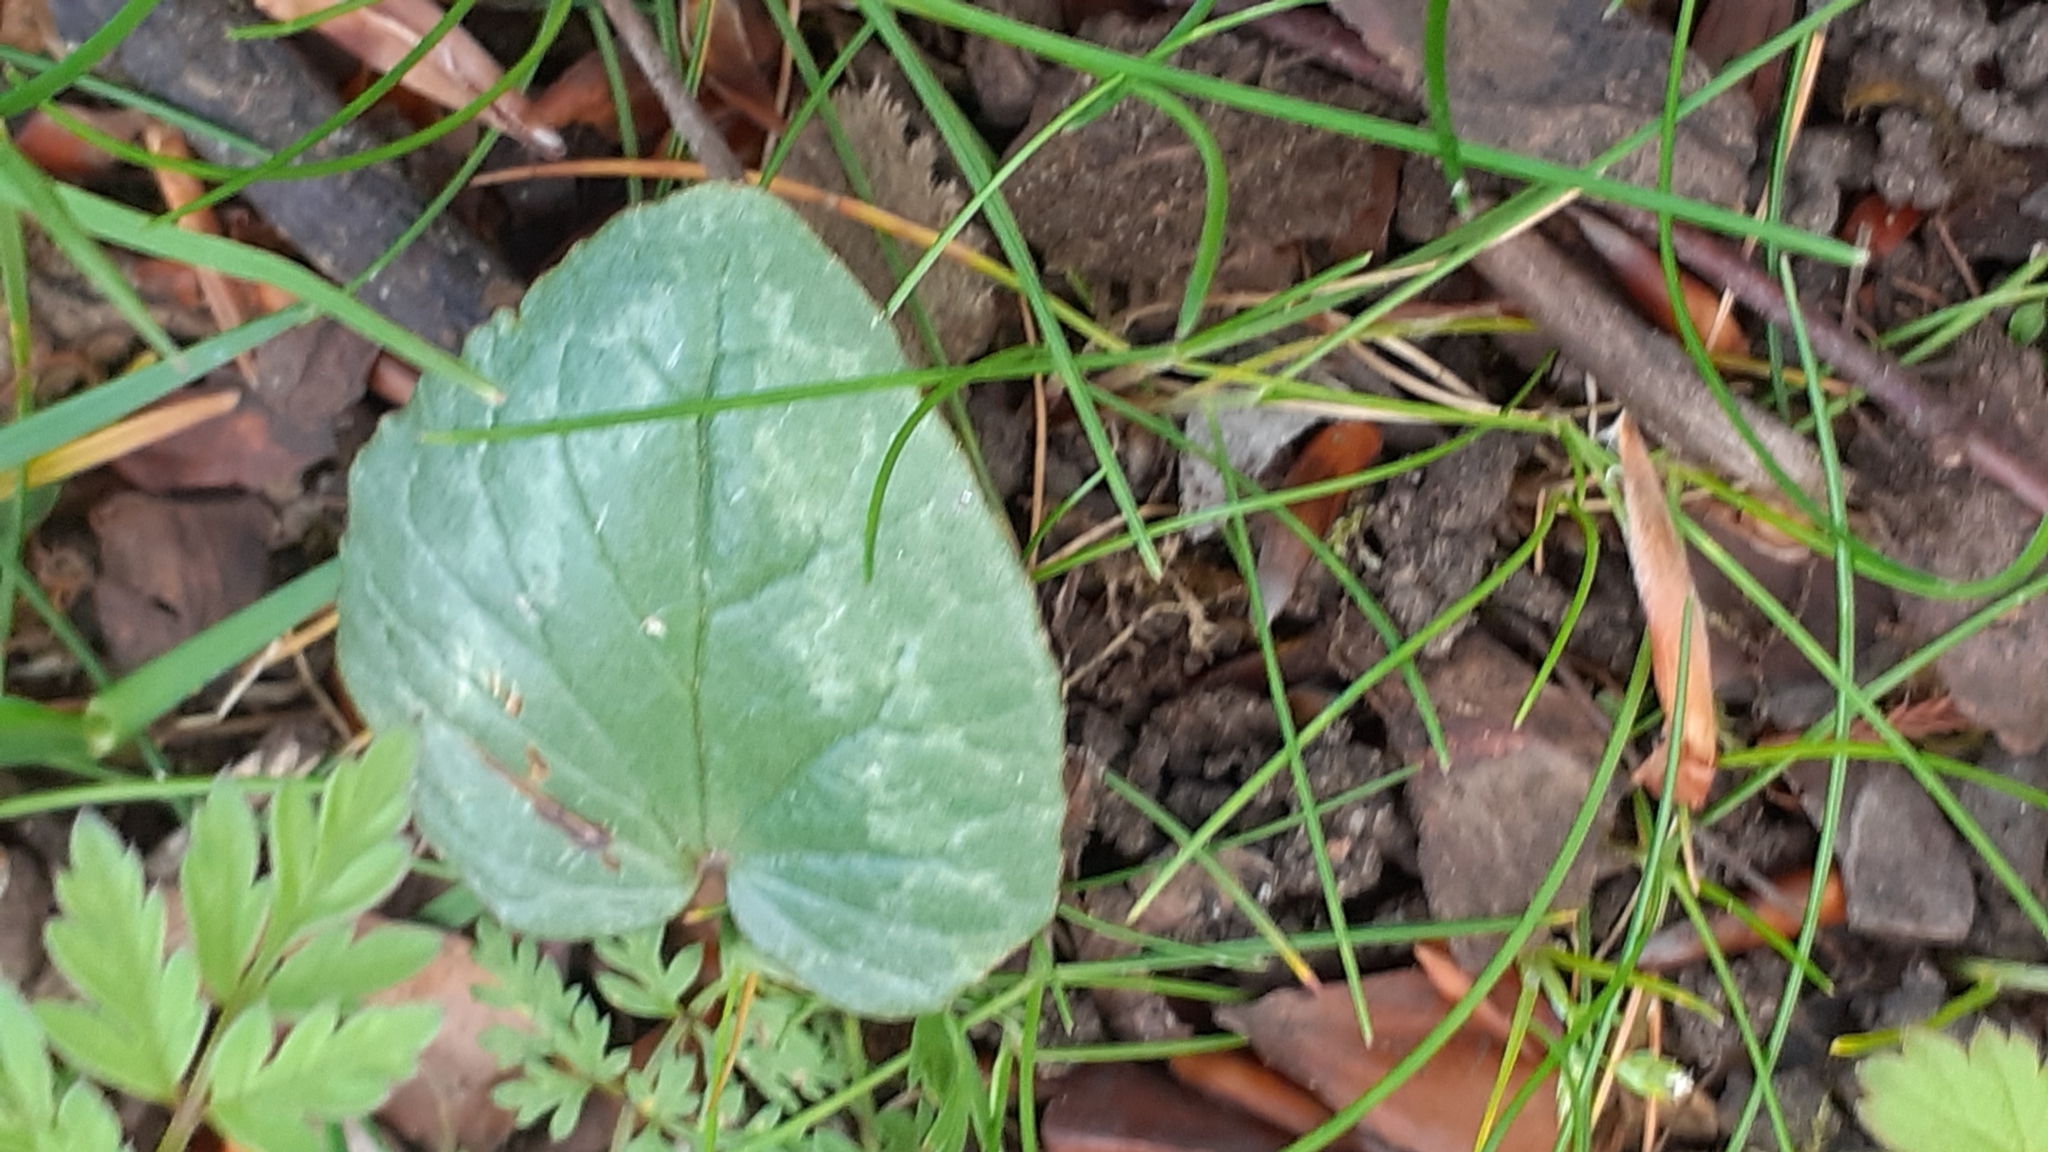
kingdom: Plantae
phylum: Tracheophyta
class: Magnoliopsida
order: Ericales
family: Primulaceae
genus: Cyclamen
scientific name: Cyclamen hederifolium
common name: Sowbread
